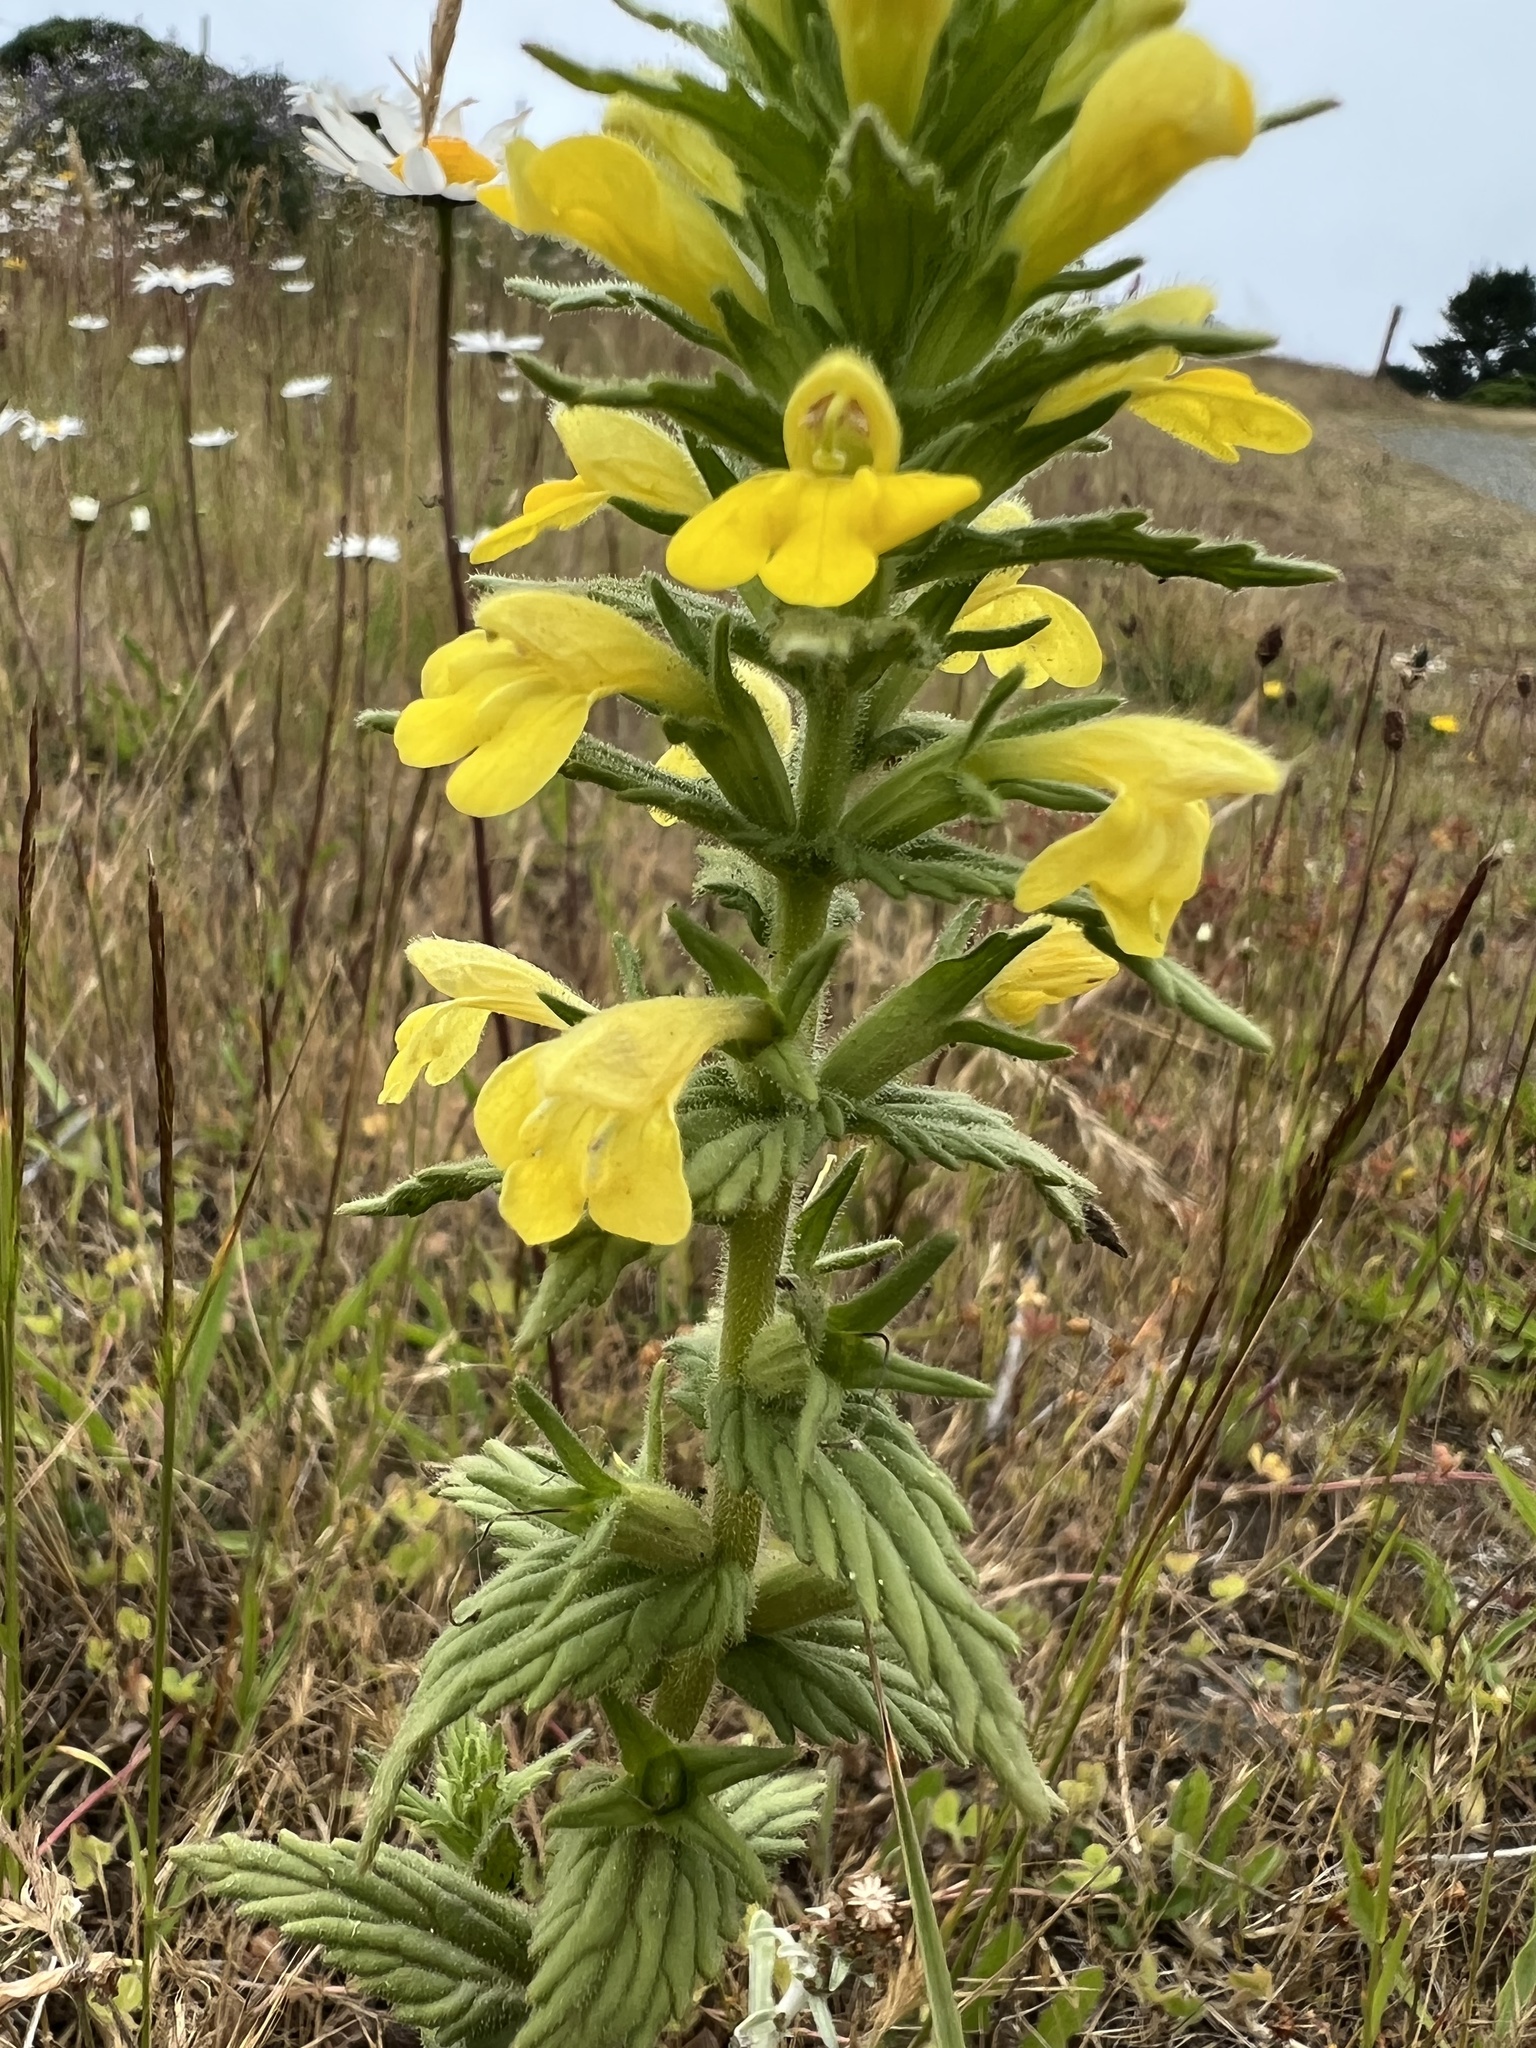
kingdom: Plantae
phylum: Tracheophyta
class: Magnoliopsida
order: Lamiales
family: Orobanchaceae
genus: Bellardia
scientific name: Bellardia viscosa
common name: Sticky parentucellia
